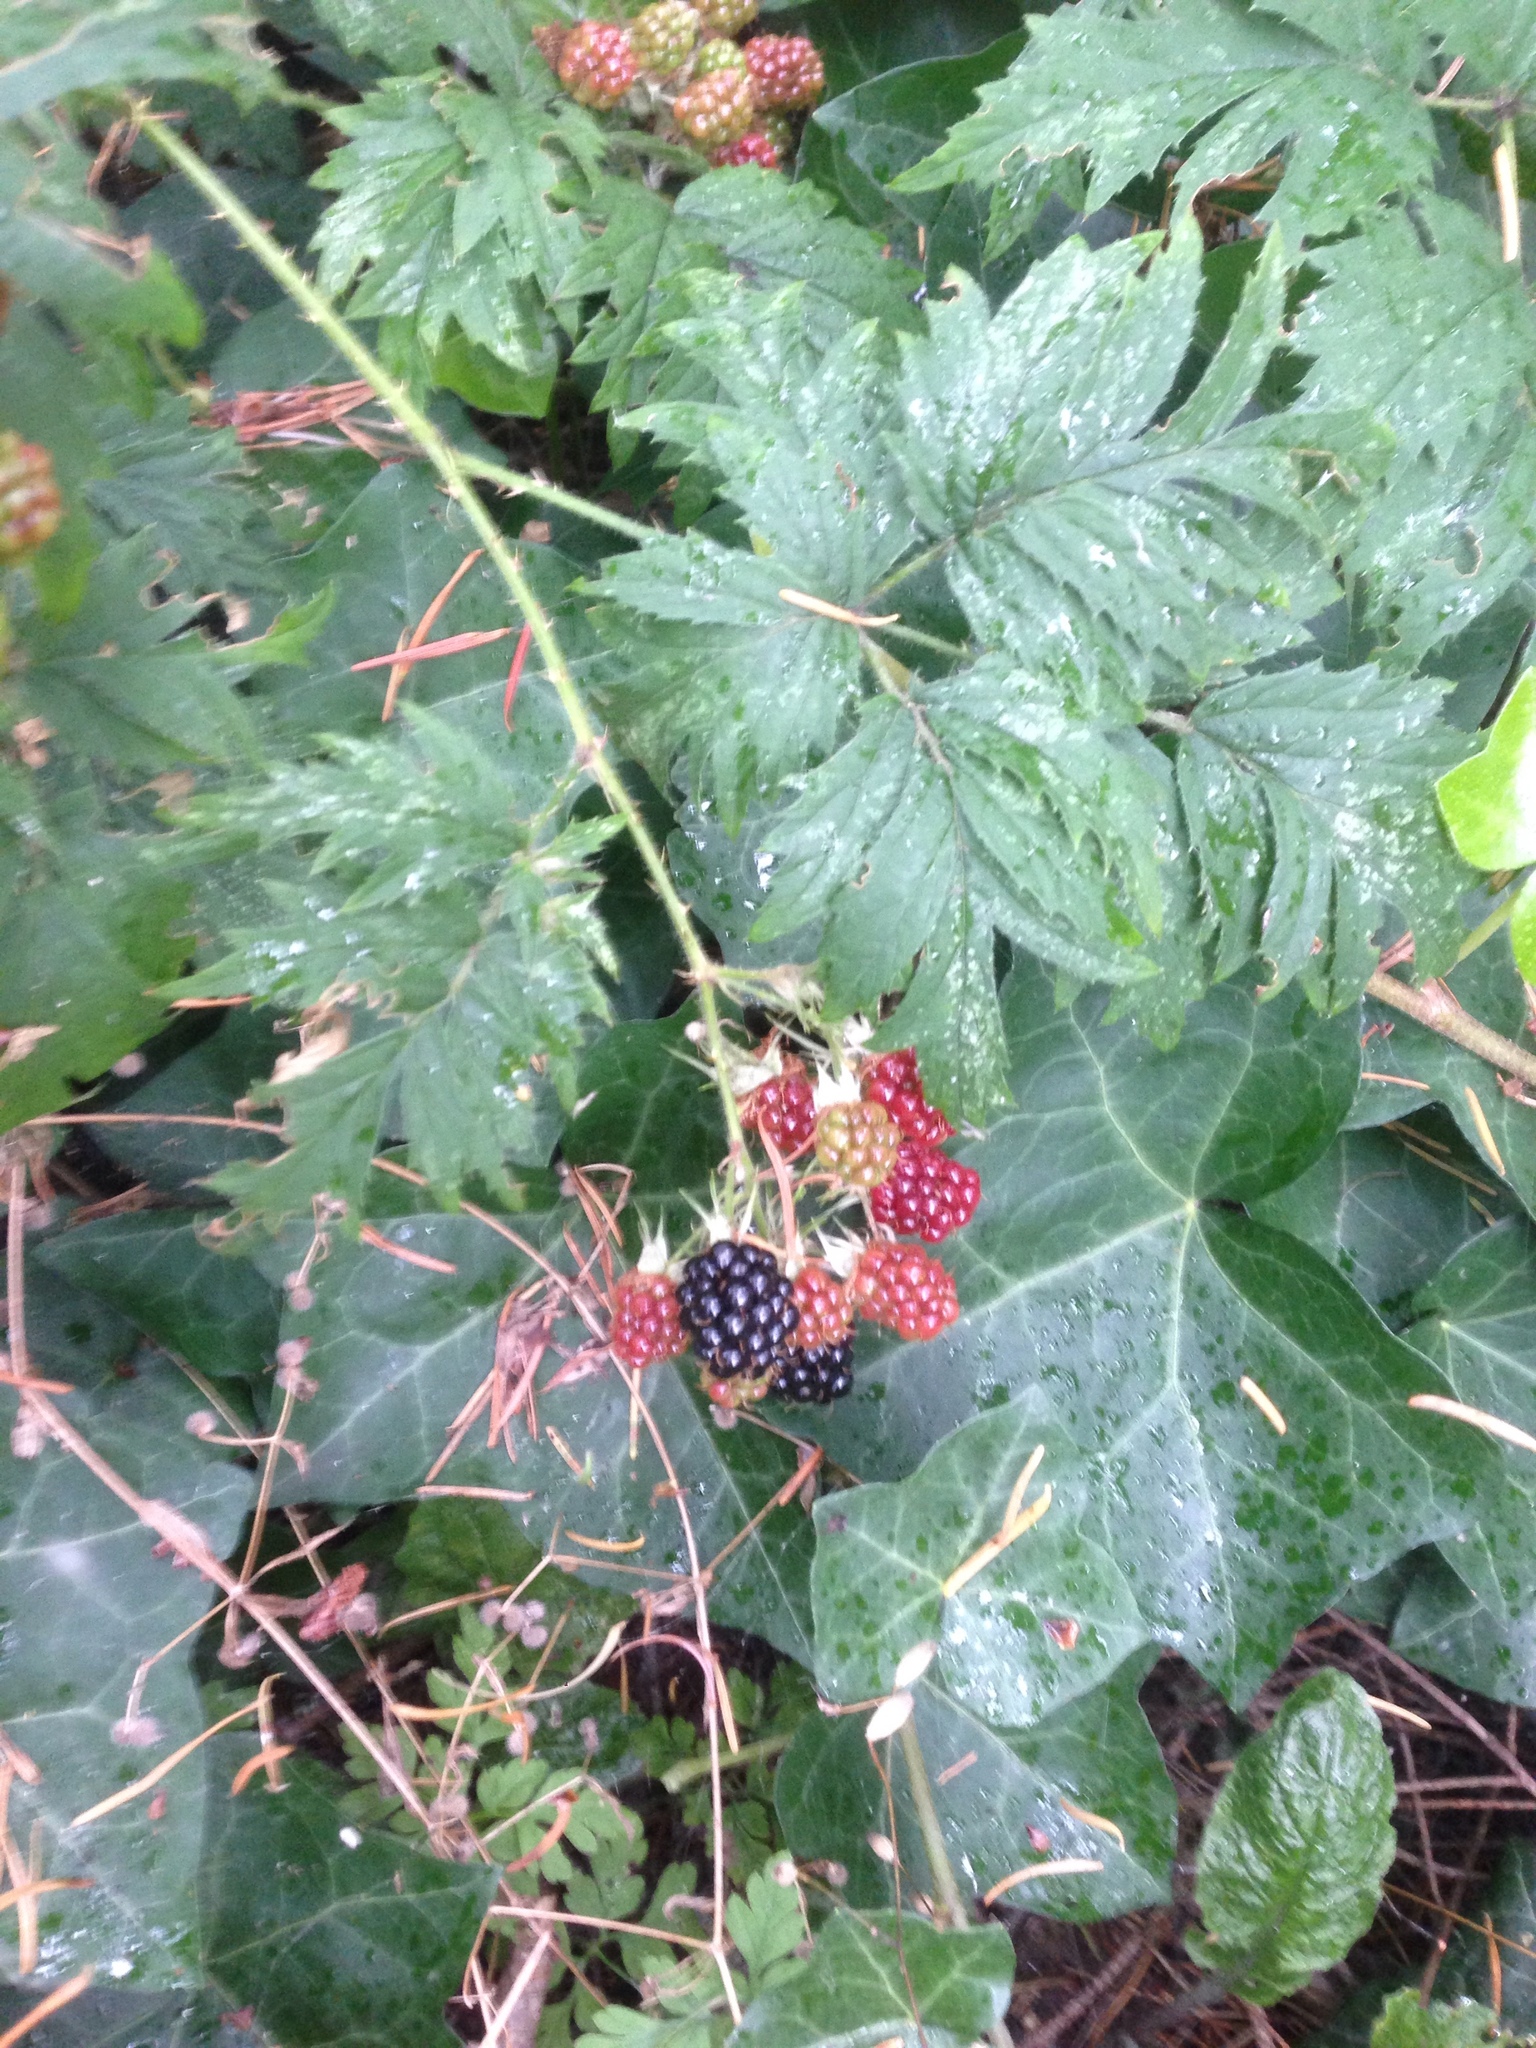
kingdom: Plantae
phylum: Tracheophyta
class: Magnoliopsida
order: Rosales
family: Rosaceae
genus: Rubus
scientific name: Rubus laciniatus
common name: Evergreen blackberry
